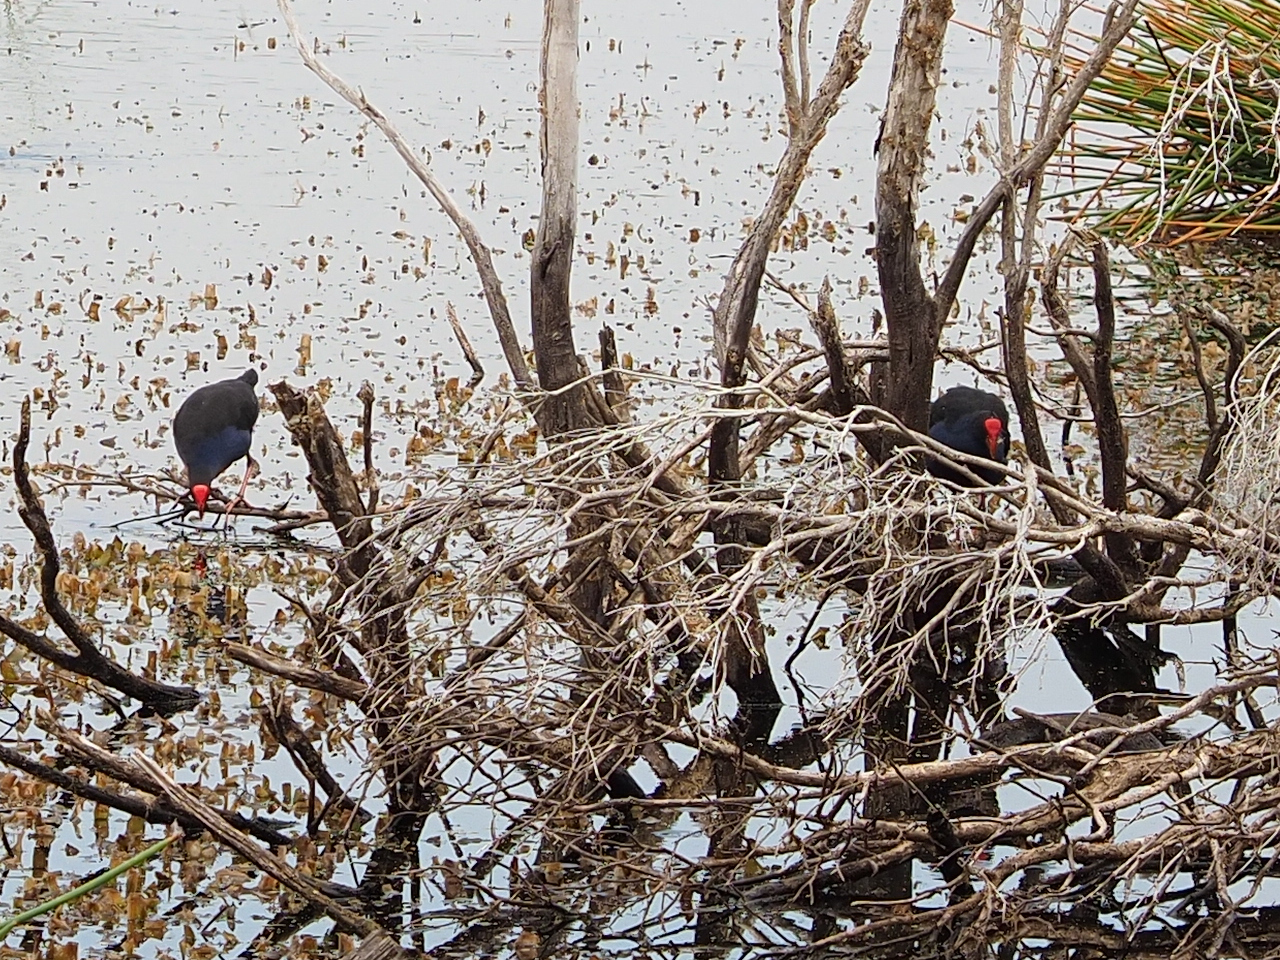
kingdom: Animalia
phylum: Chordata
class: Aves
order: Gruiformes
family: Rallidae
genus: Porphyrio
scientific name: Porphyrio melanotus
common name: Australasian swamphen
